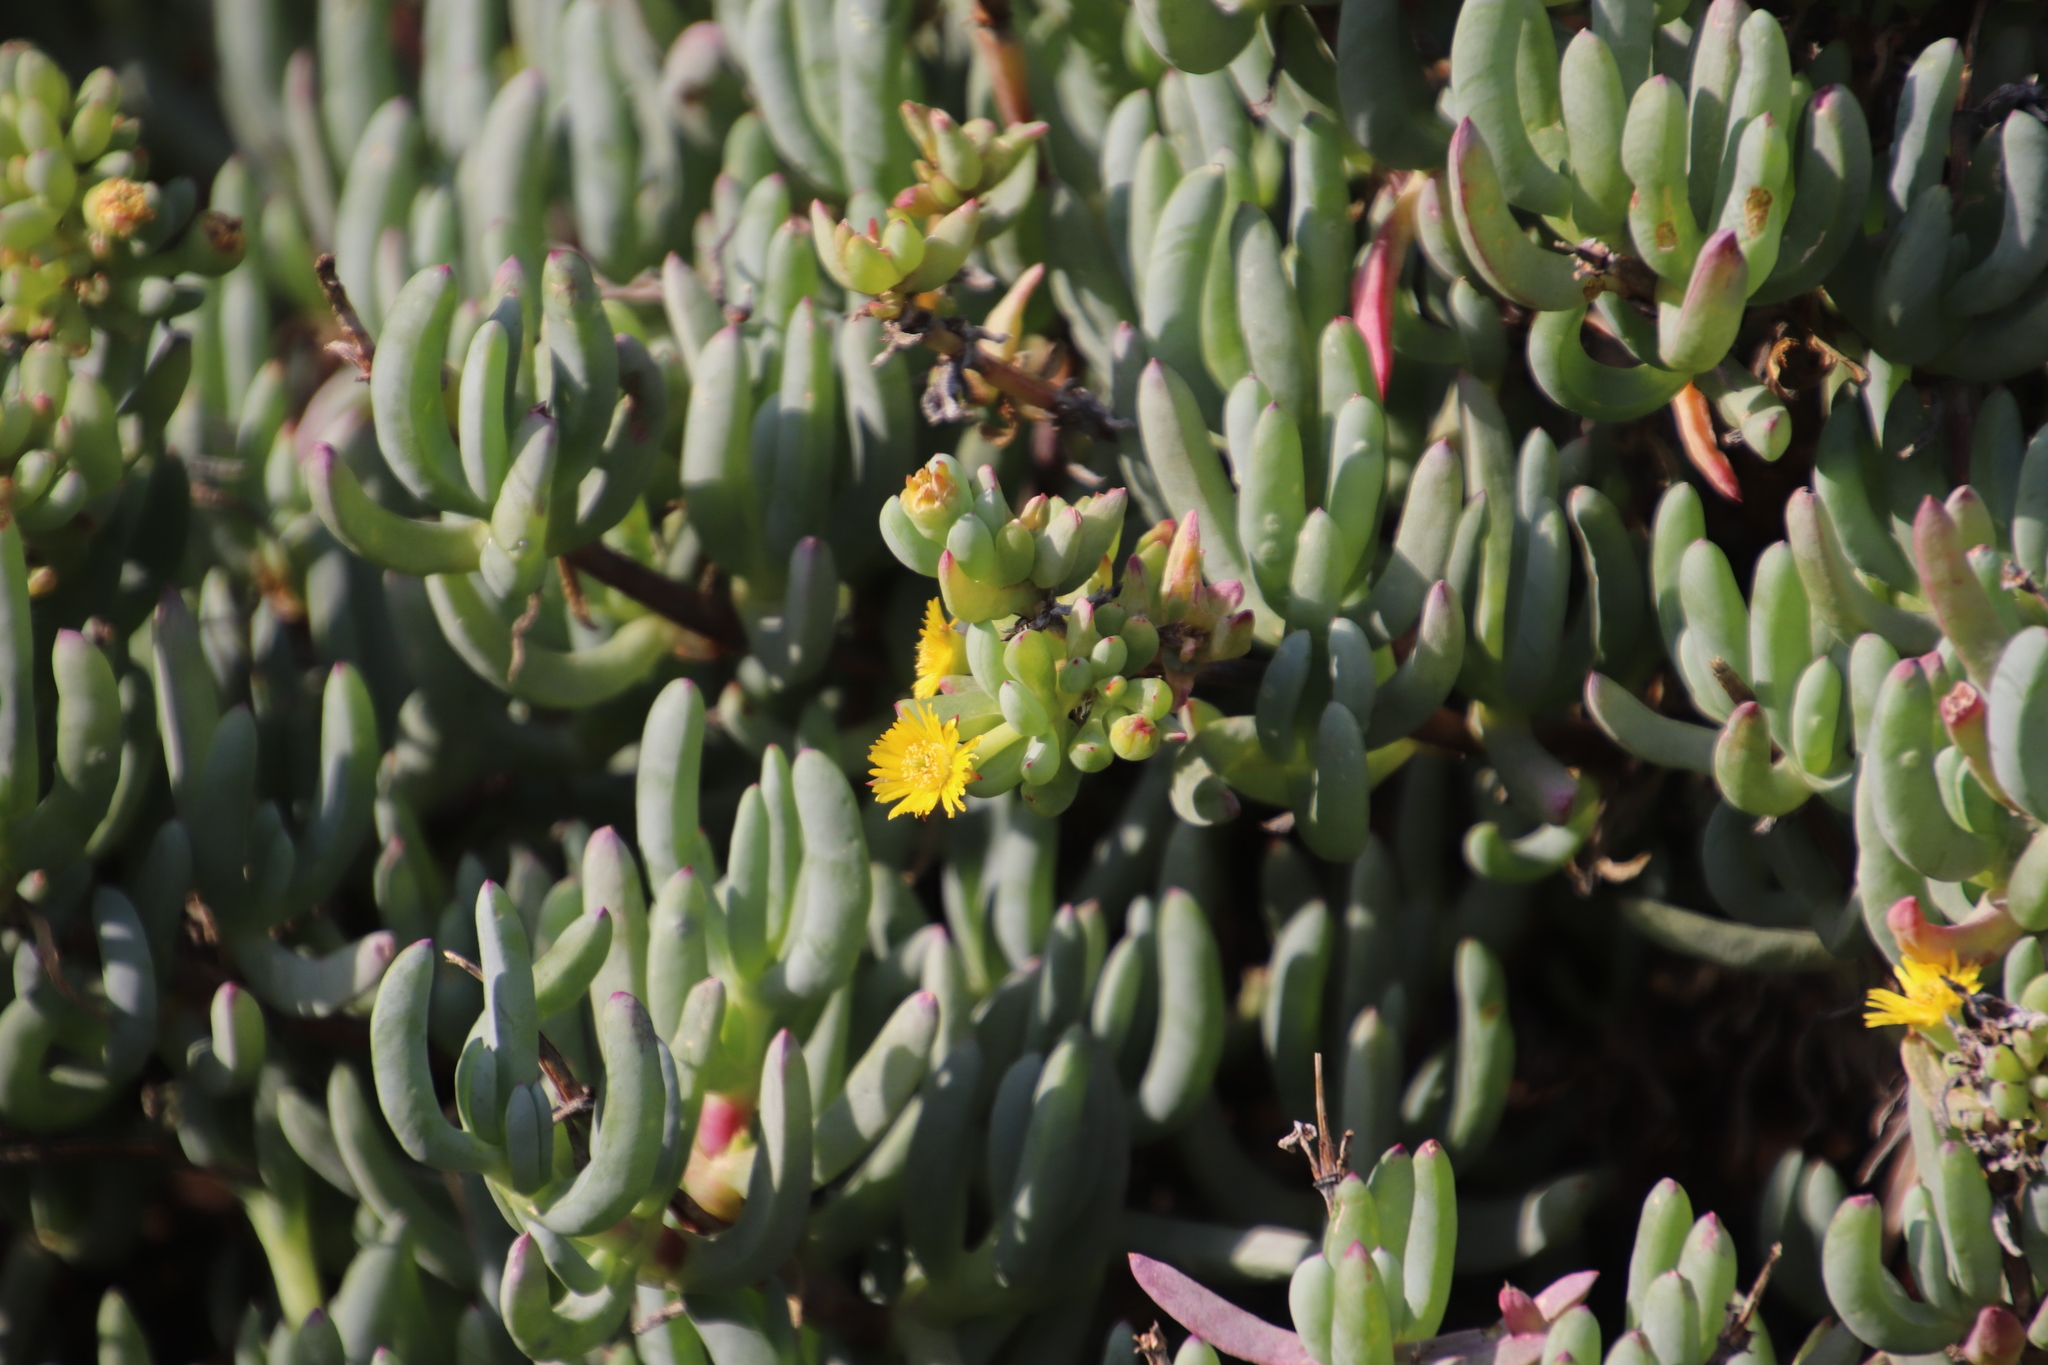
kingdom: Plantae
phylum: Tracheophyta
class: Magnoliopsida
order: Caryophyllales
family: Aizoaceae
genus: Scopelogena
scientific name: Scopelogena verruculata
